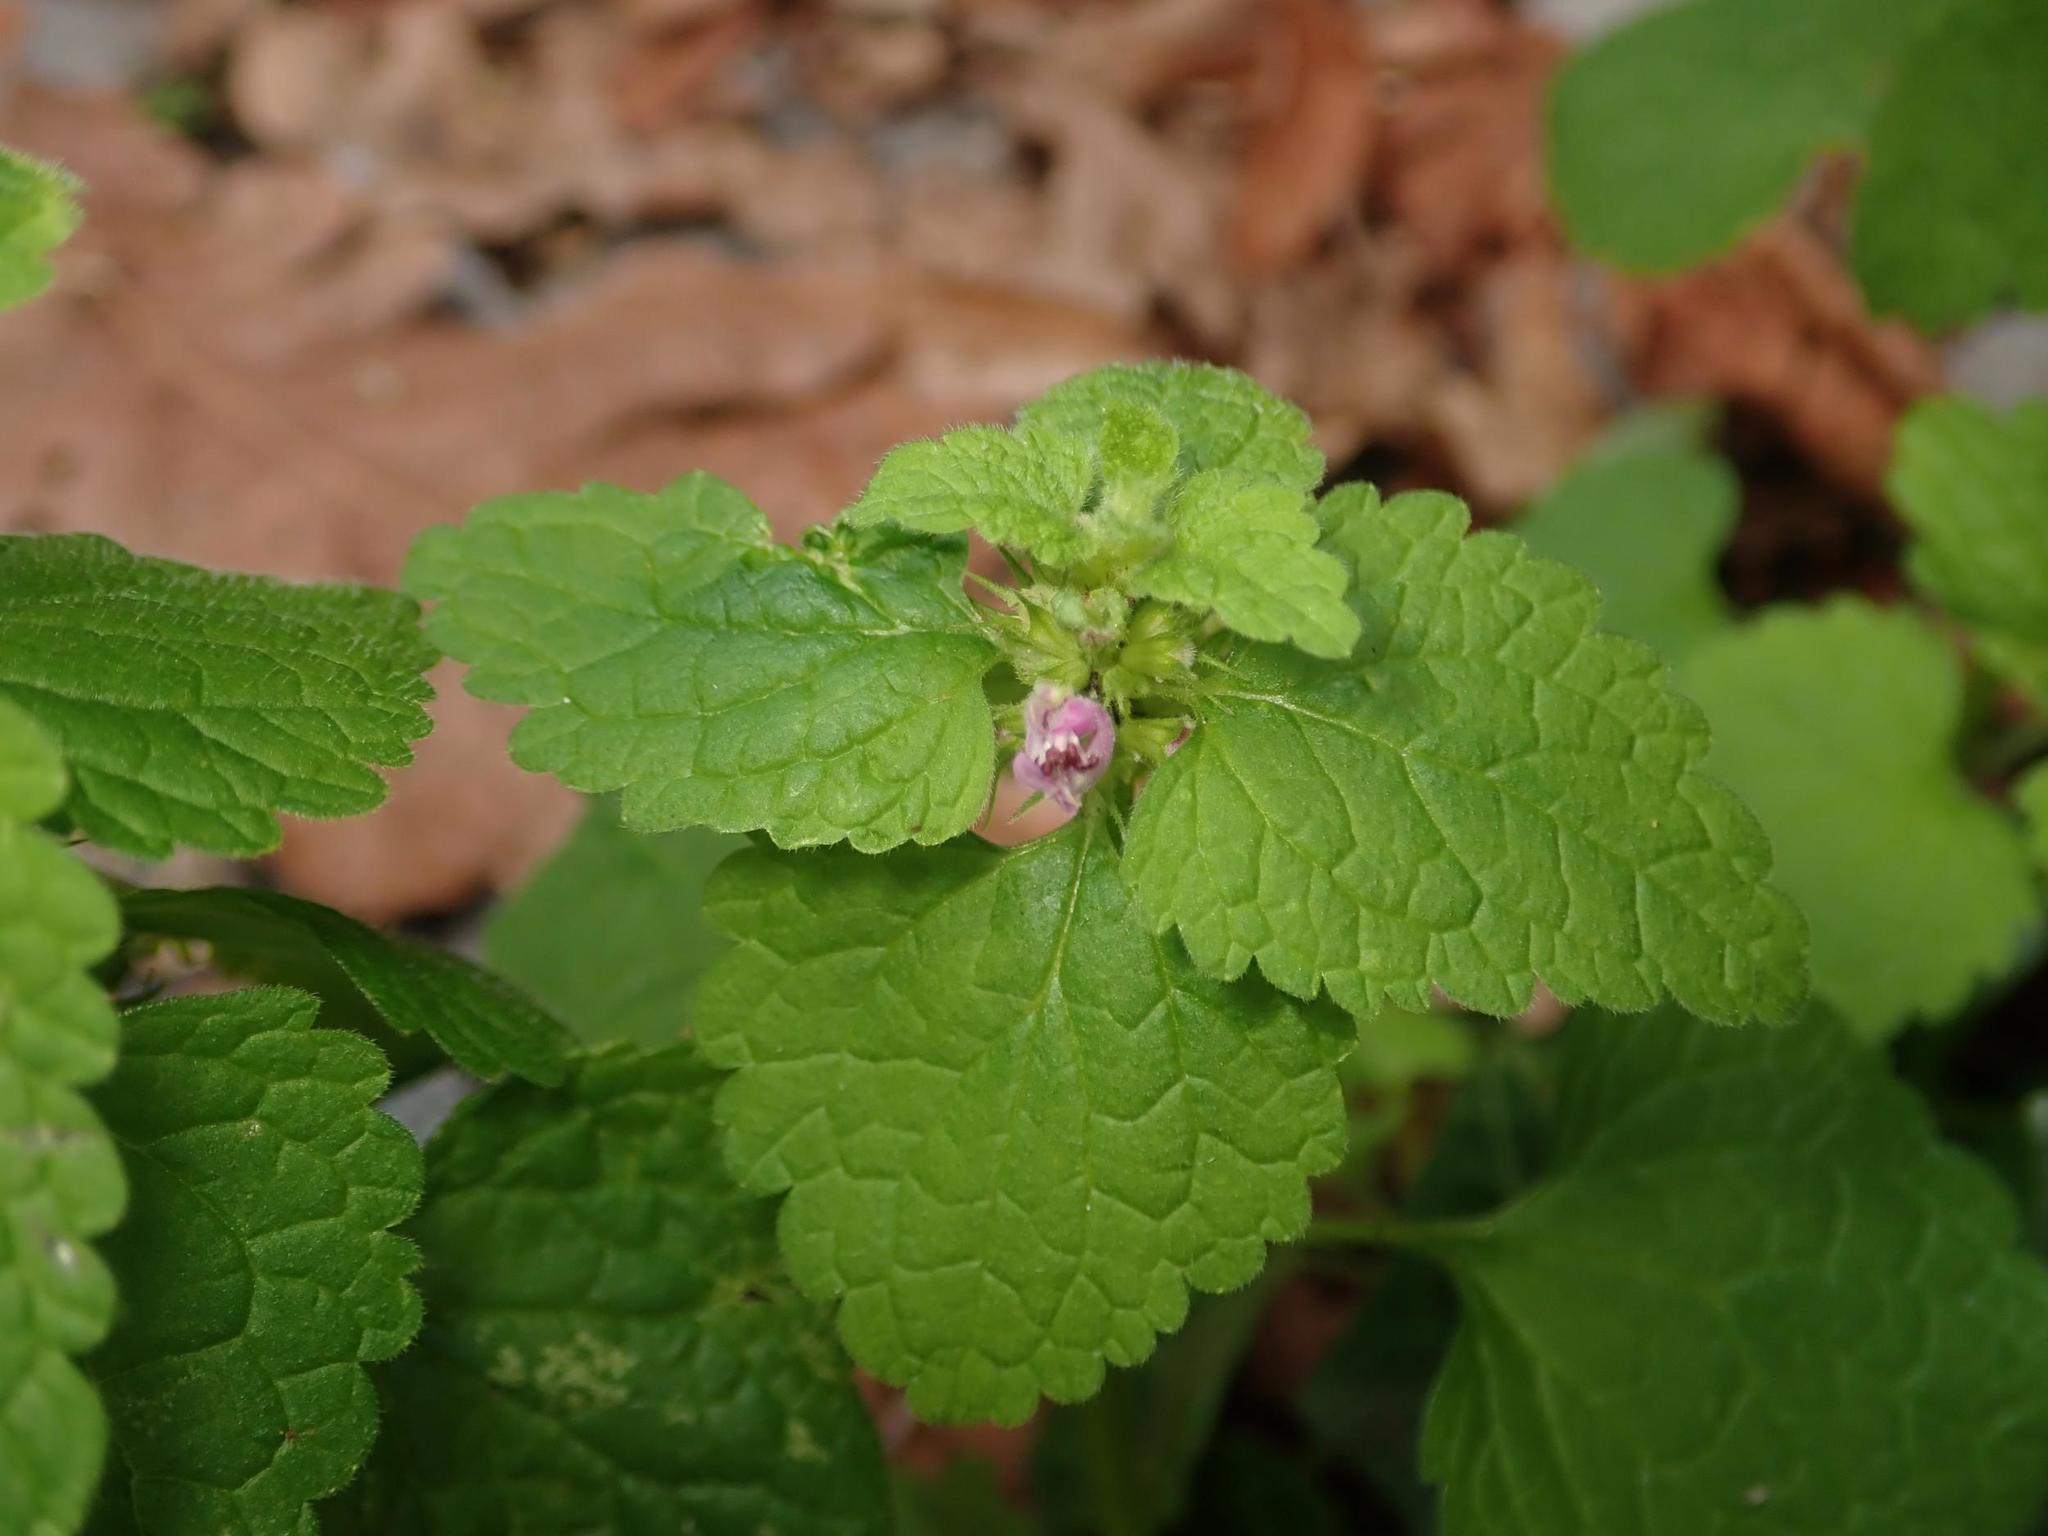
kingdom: Plantae
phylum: Tracheophyta
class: Magnoliopsida
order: Lamiales
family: Lamiaceae
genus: Lamium
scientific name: Lamium purpureum
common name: Red dead-nettle
